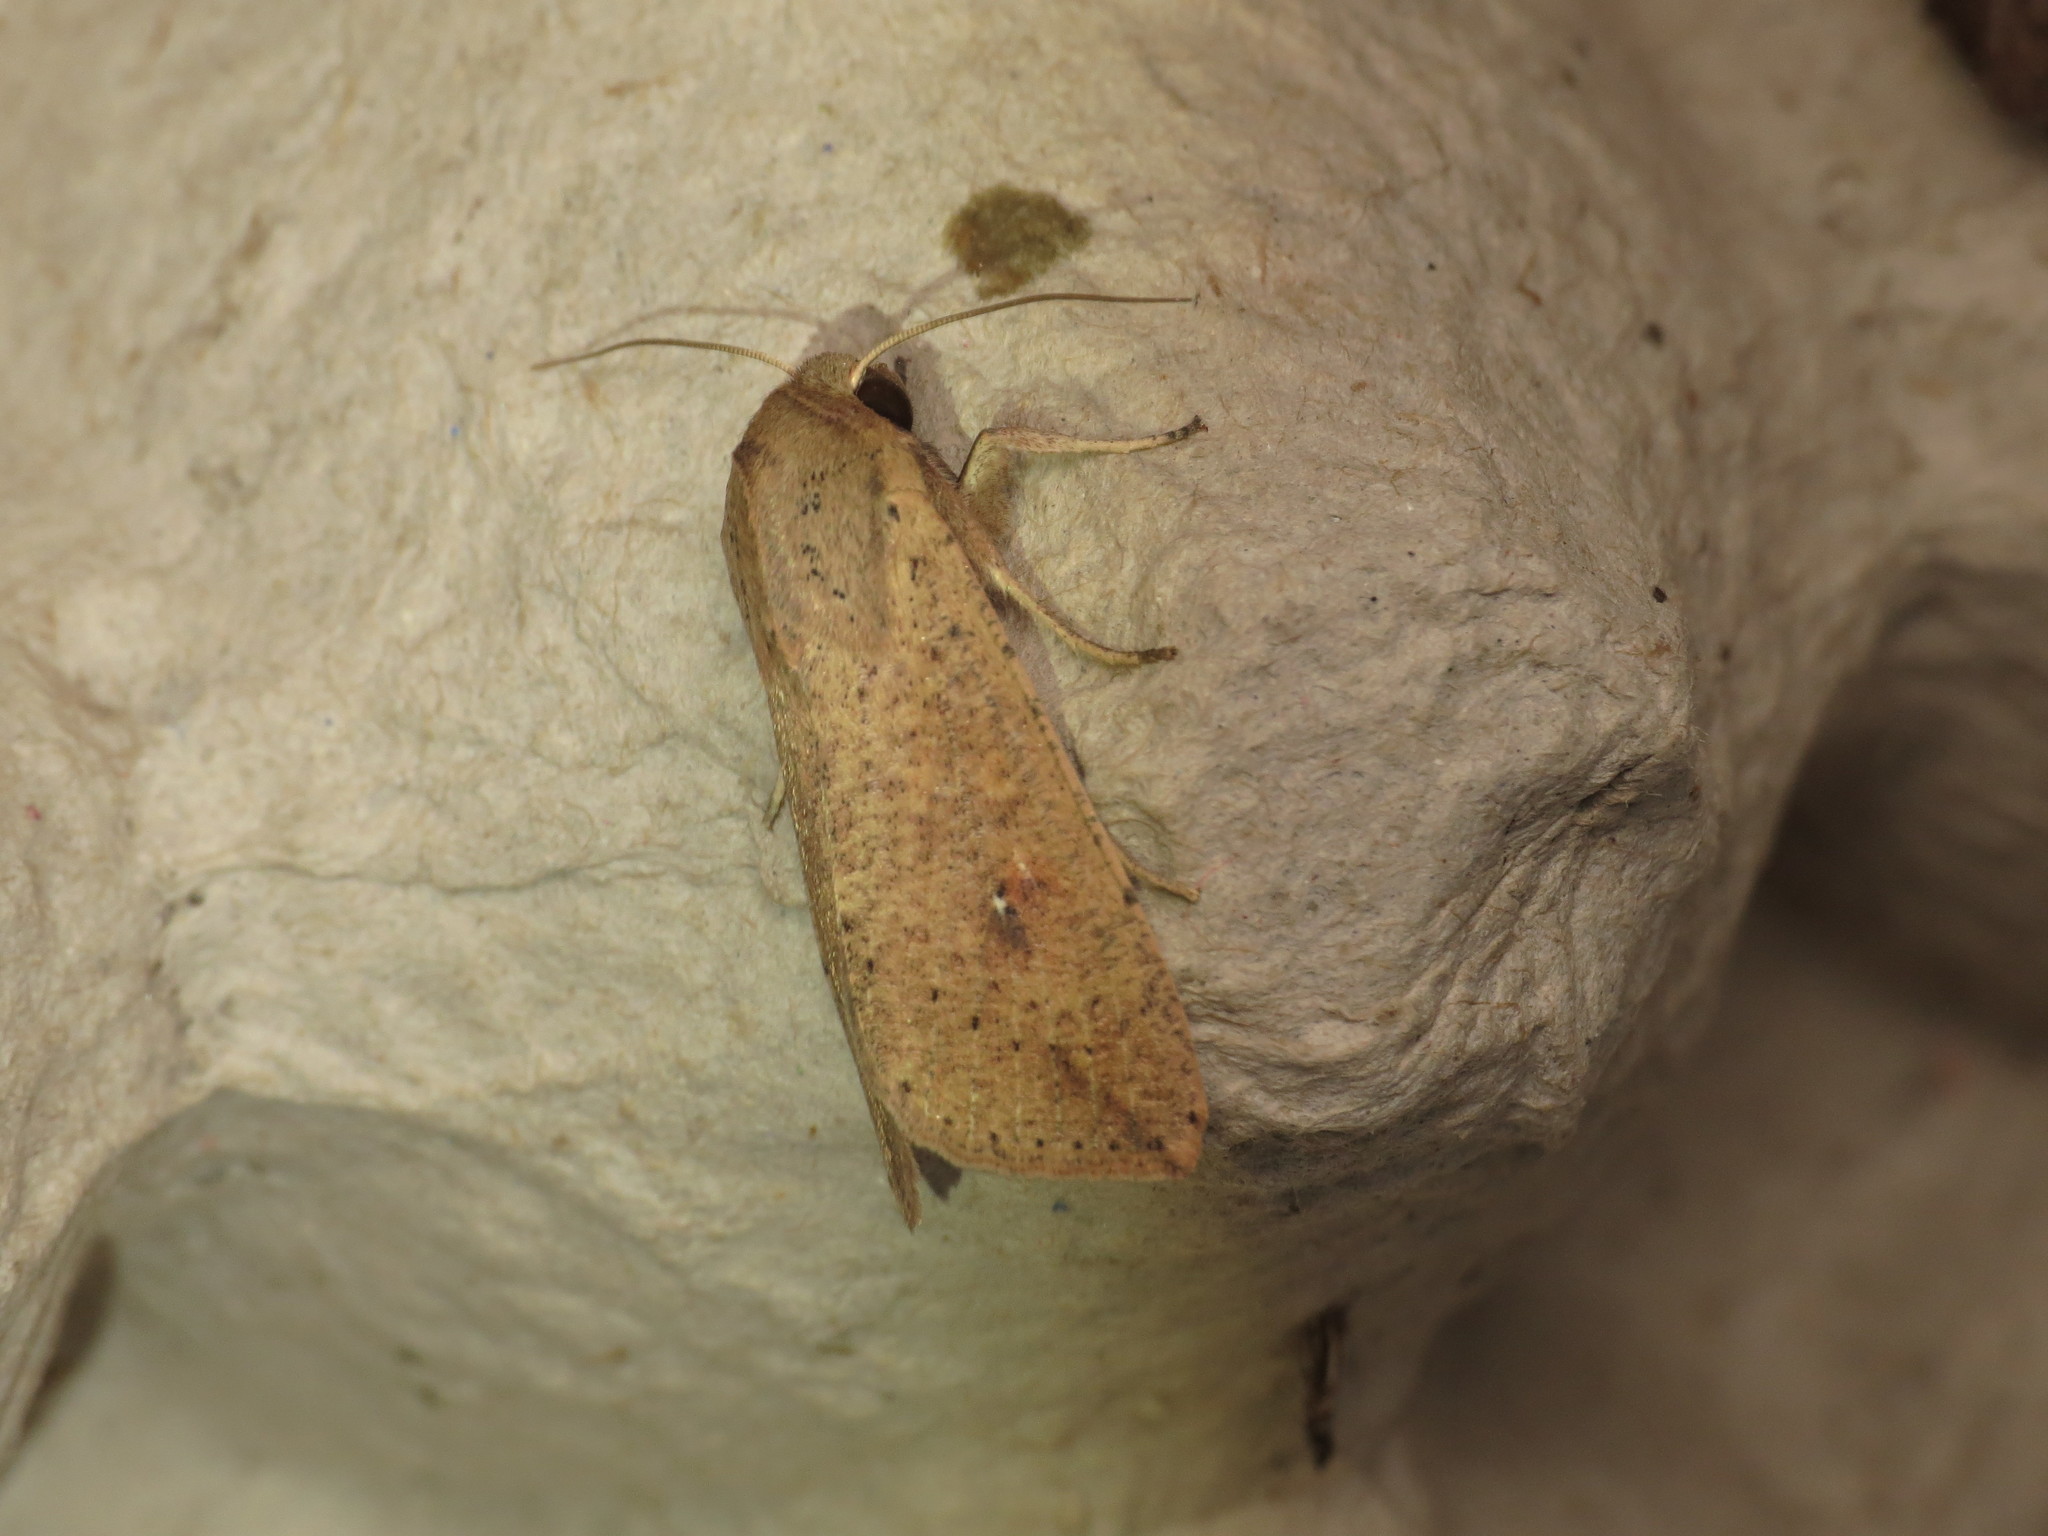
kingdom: Animalia
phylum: Arthropoda
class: Insecta
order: Lepidoptera
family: Noctuidae
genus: Mythimna
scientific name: Mythimna convecta
